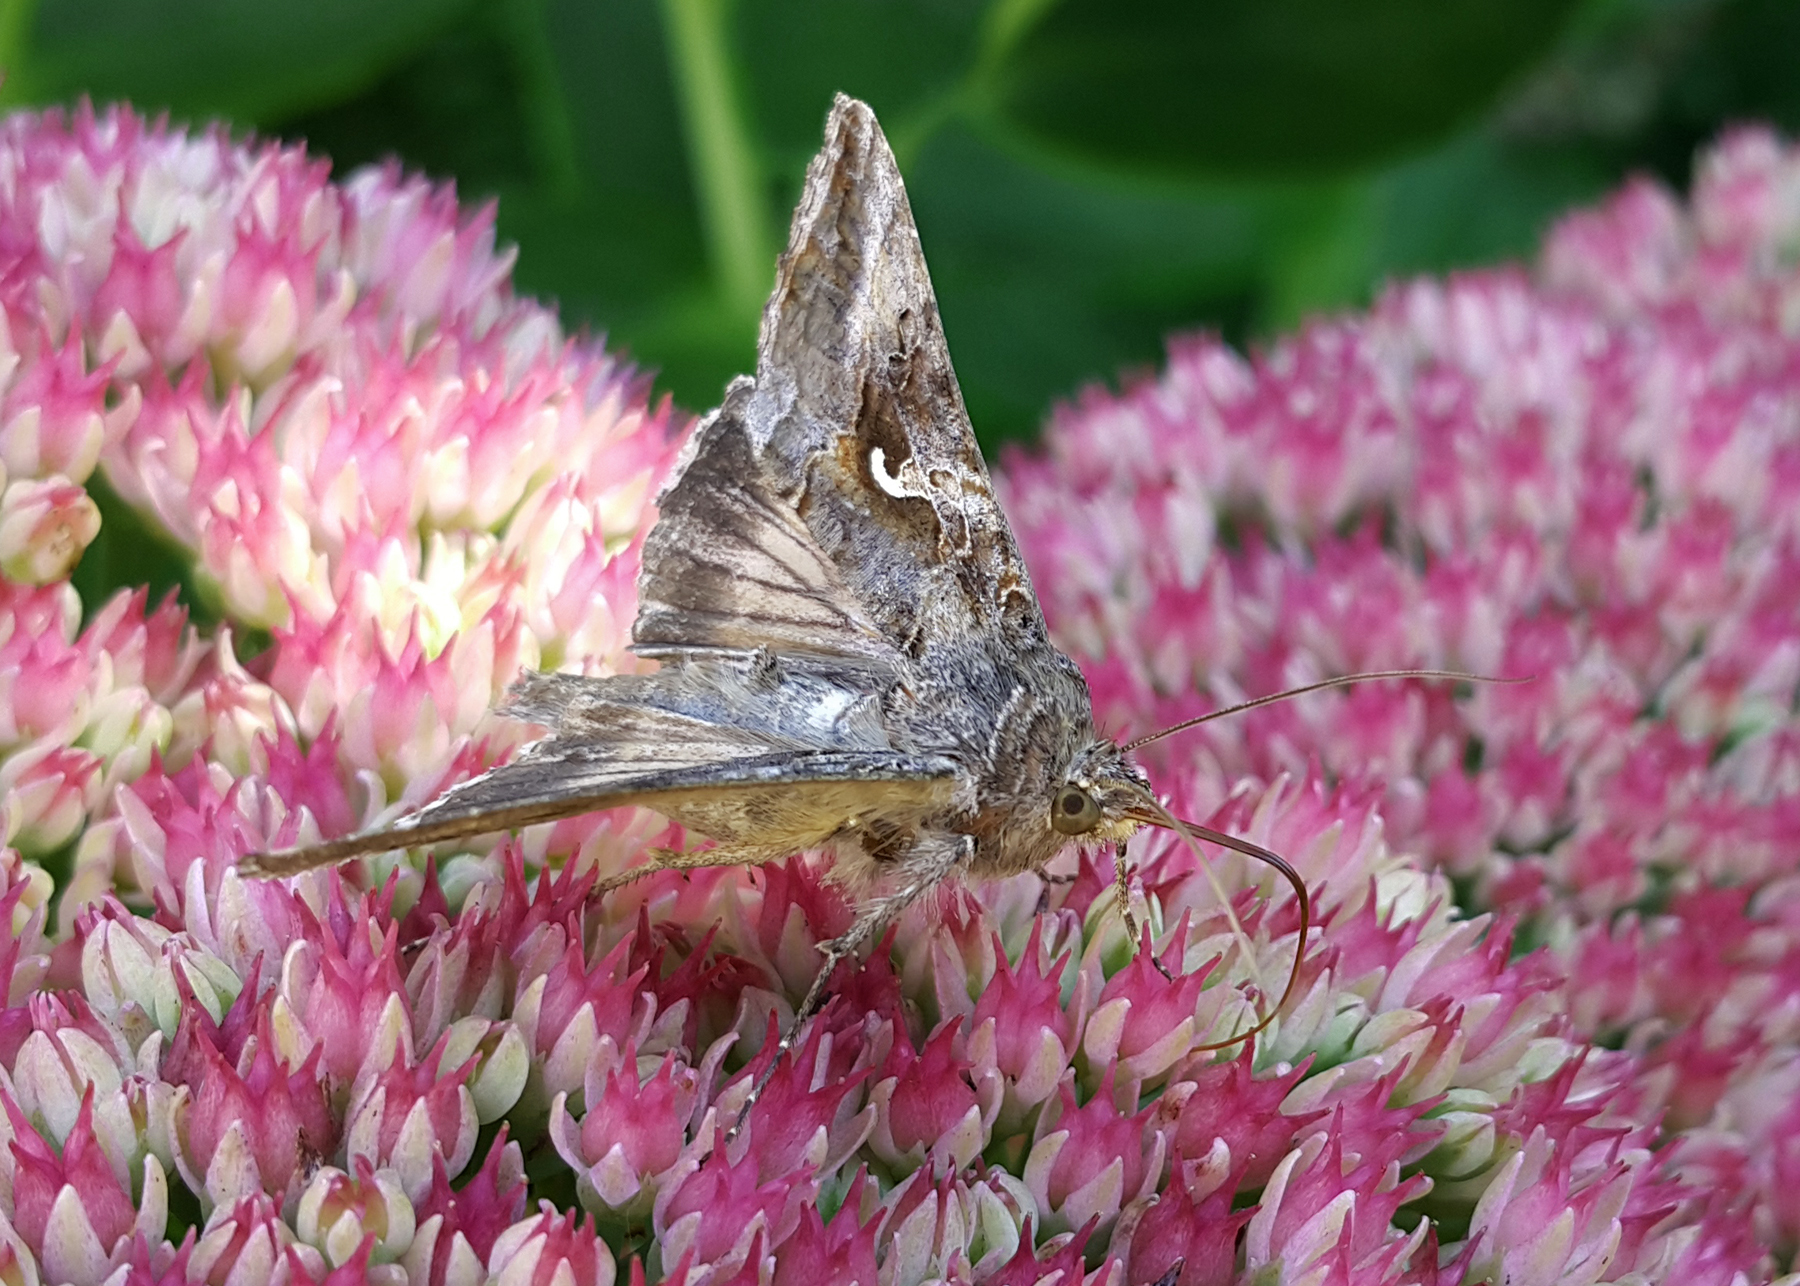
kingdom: Animalia
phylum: Arthropoda
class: Insecta
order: Lepidoptera
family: Noctuidae
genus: Autographa
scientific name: Autographa gamma
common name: Silver y
